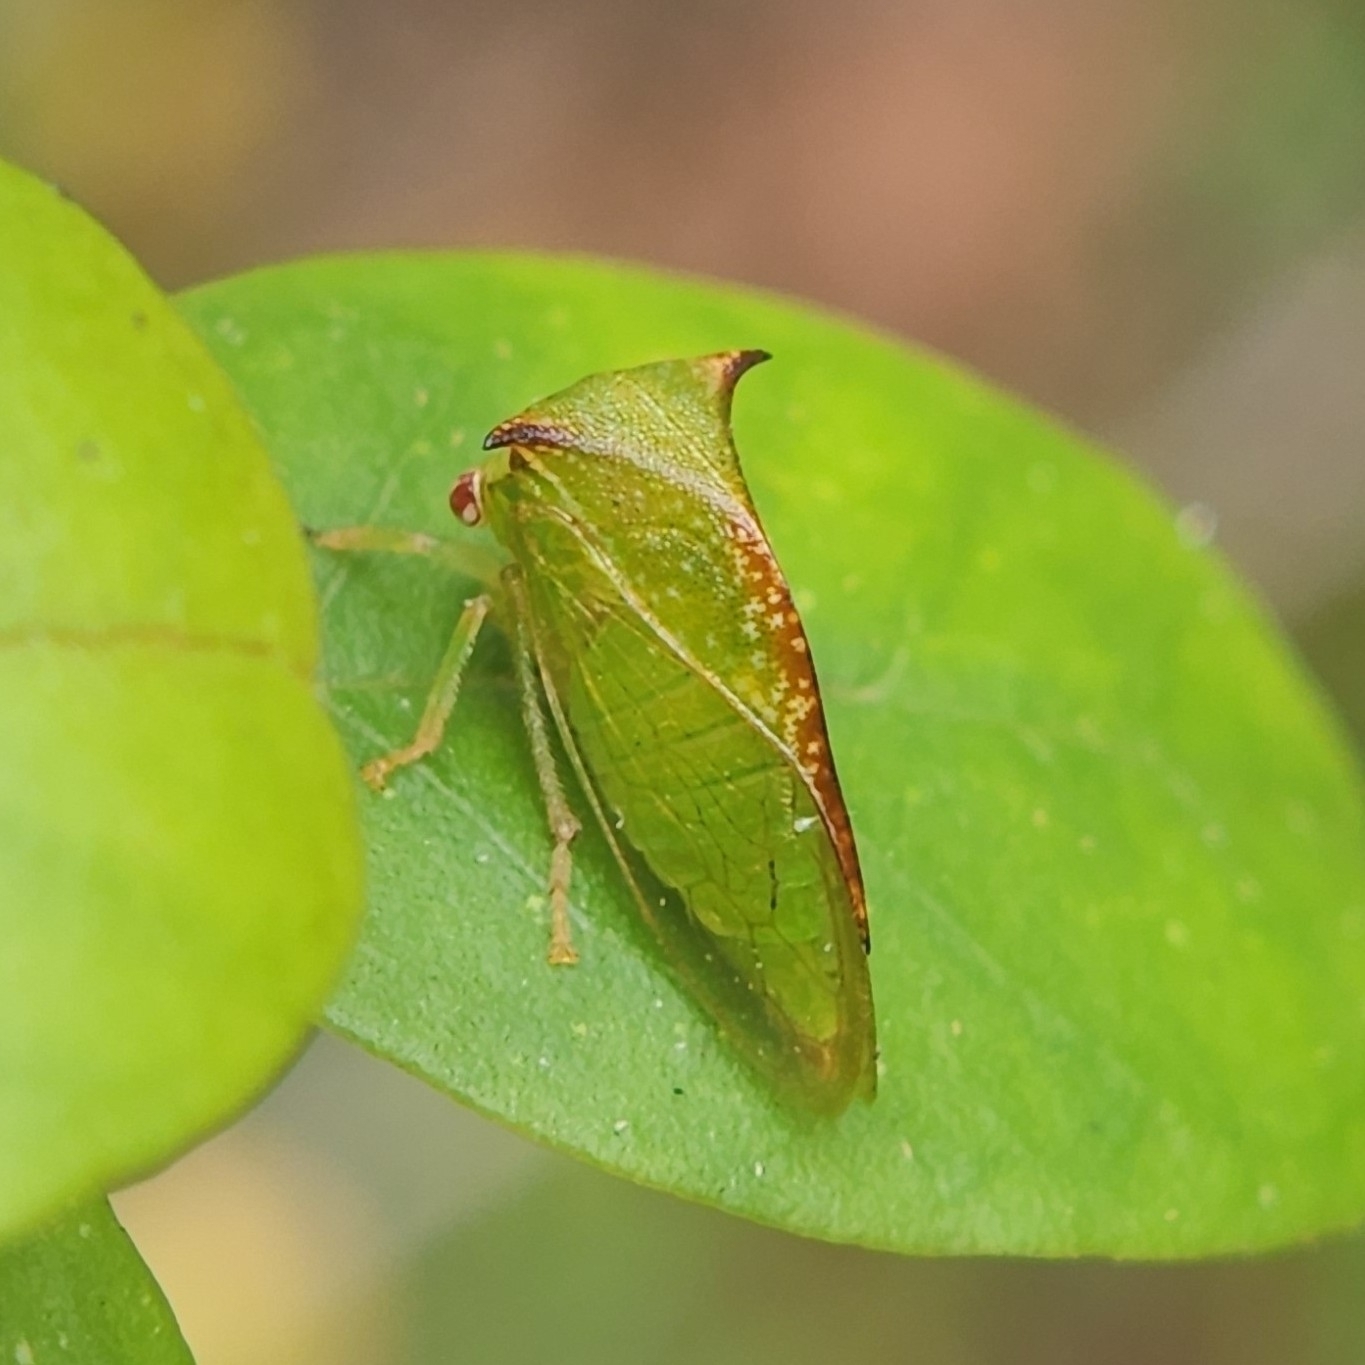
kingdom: Animalia
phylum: Arthropoda
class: Insecta
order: Hemiptera
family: Membracidae
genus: Stictocephala
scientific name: Stictocephala militaris
